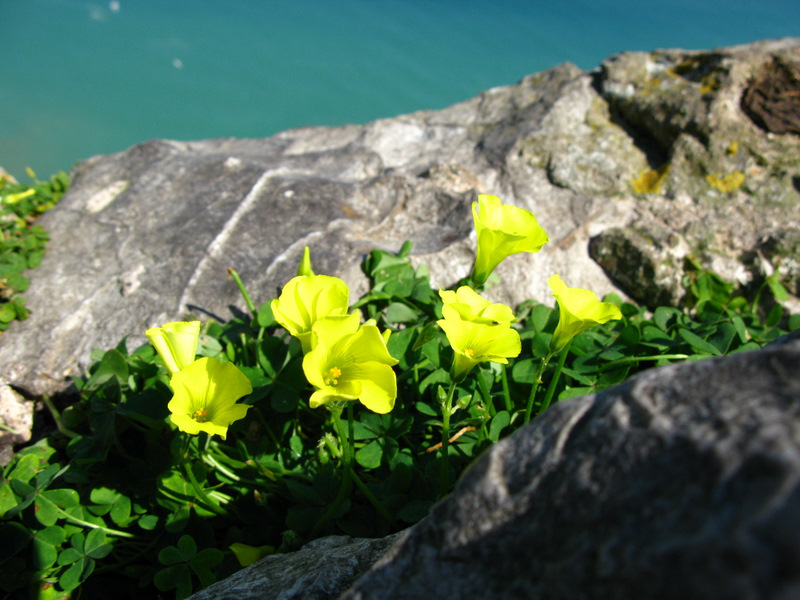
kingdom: Plantae
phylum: Tracheophyta
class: Magnoliopsida
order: Oxalidales
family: Oxalidaceae
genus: Oxalis
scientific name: Oxalis pes-caprae
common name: Bermuda-buttercup
